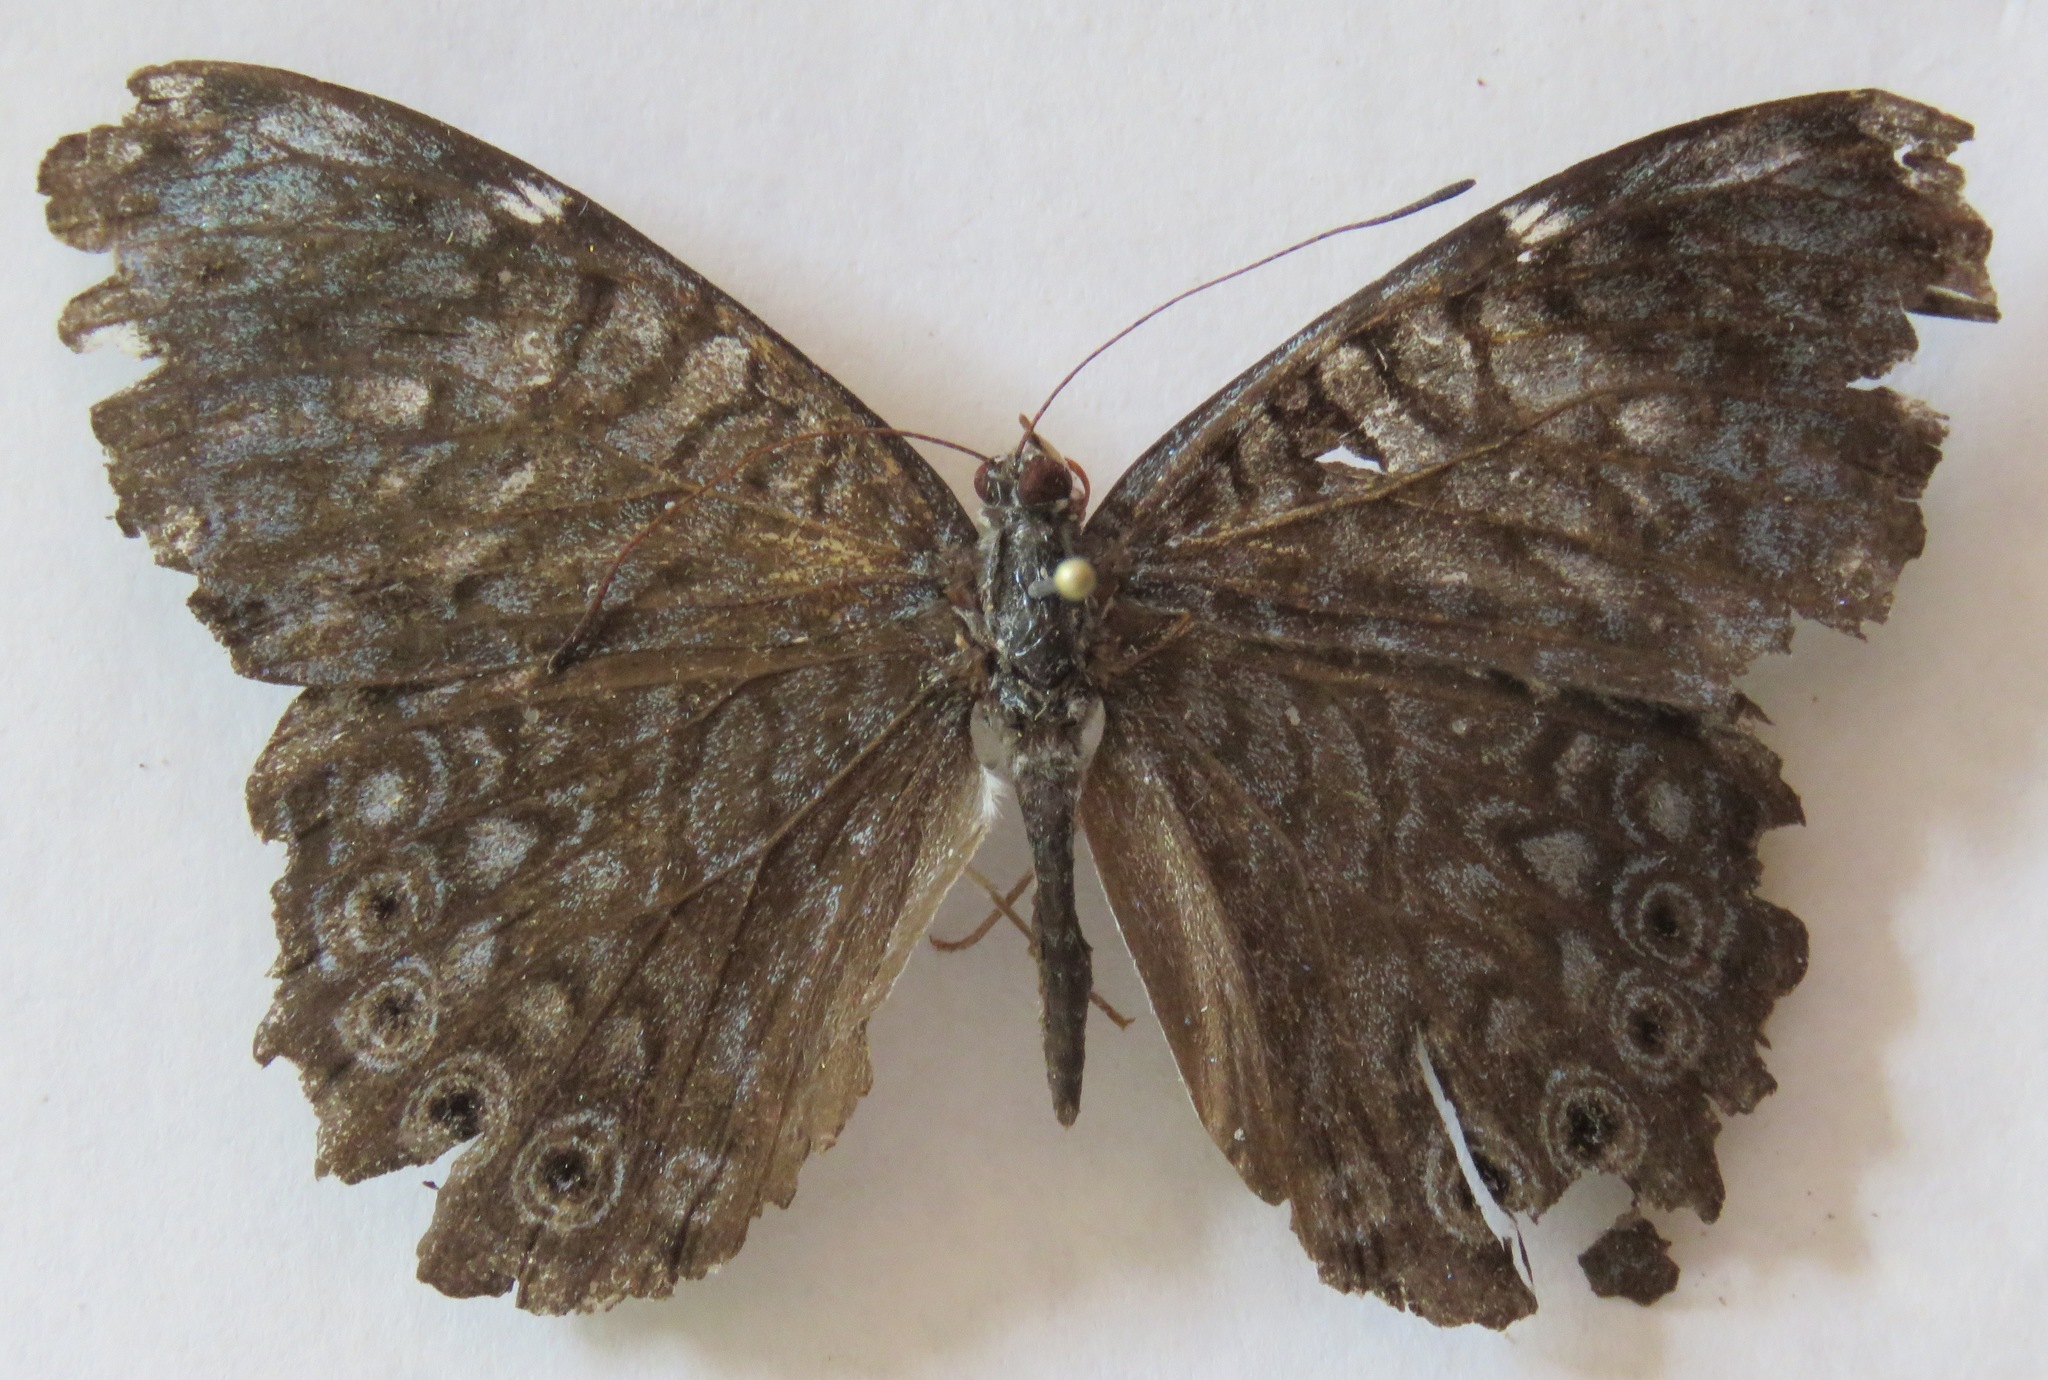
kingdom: Animalia
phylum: Arthropoda
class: Insecta
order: Lepidoptera
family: Nymphalidae
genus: Hamadryas
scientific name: Hamadryas atlantis
